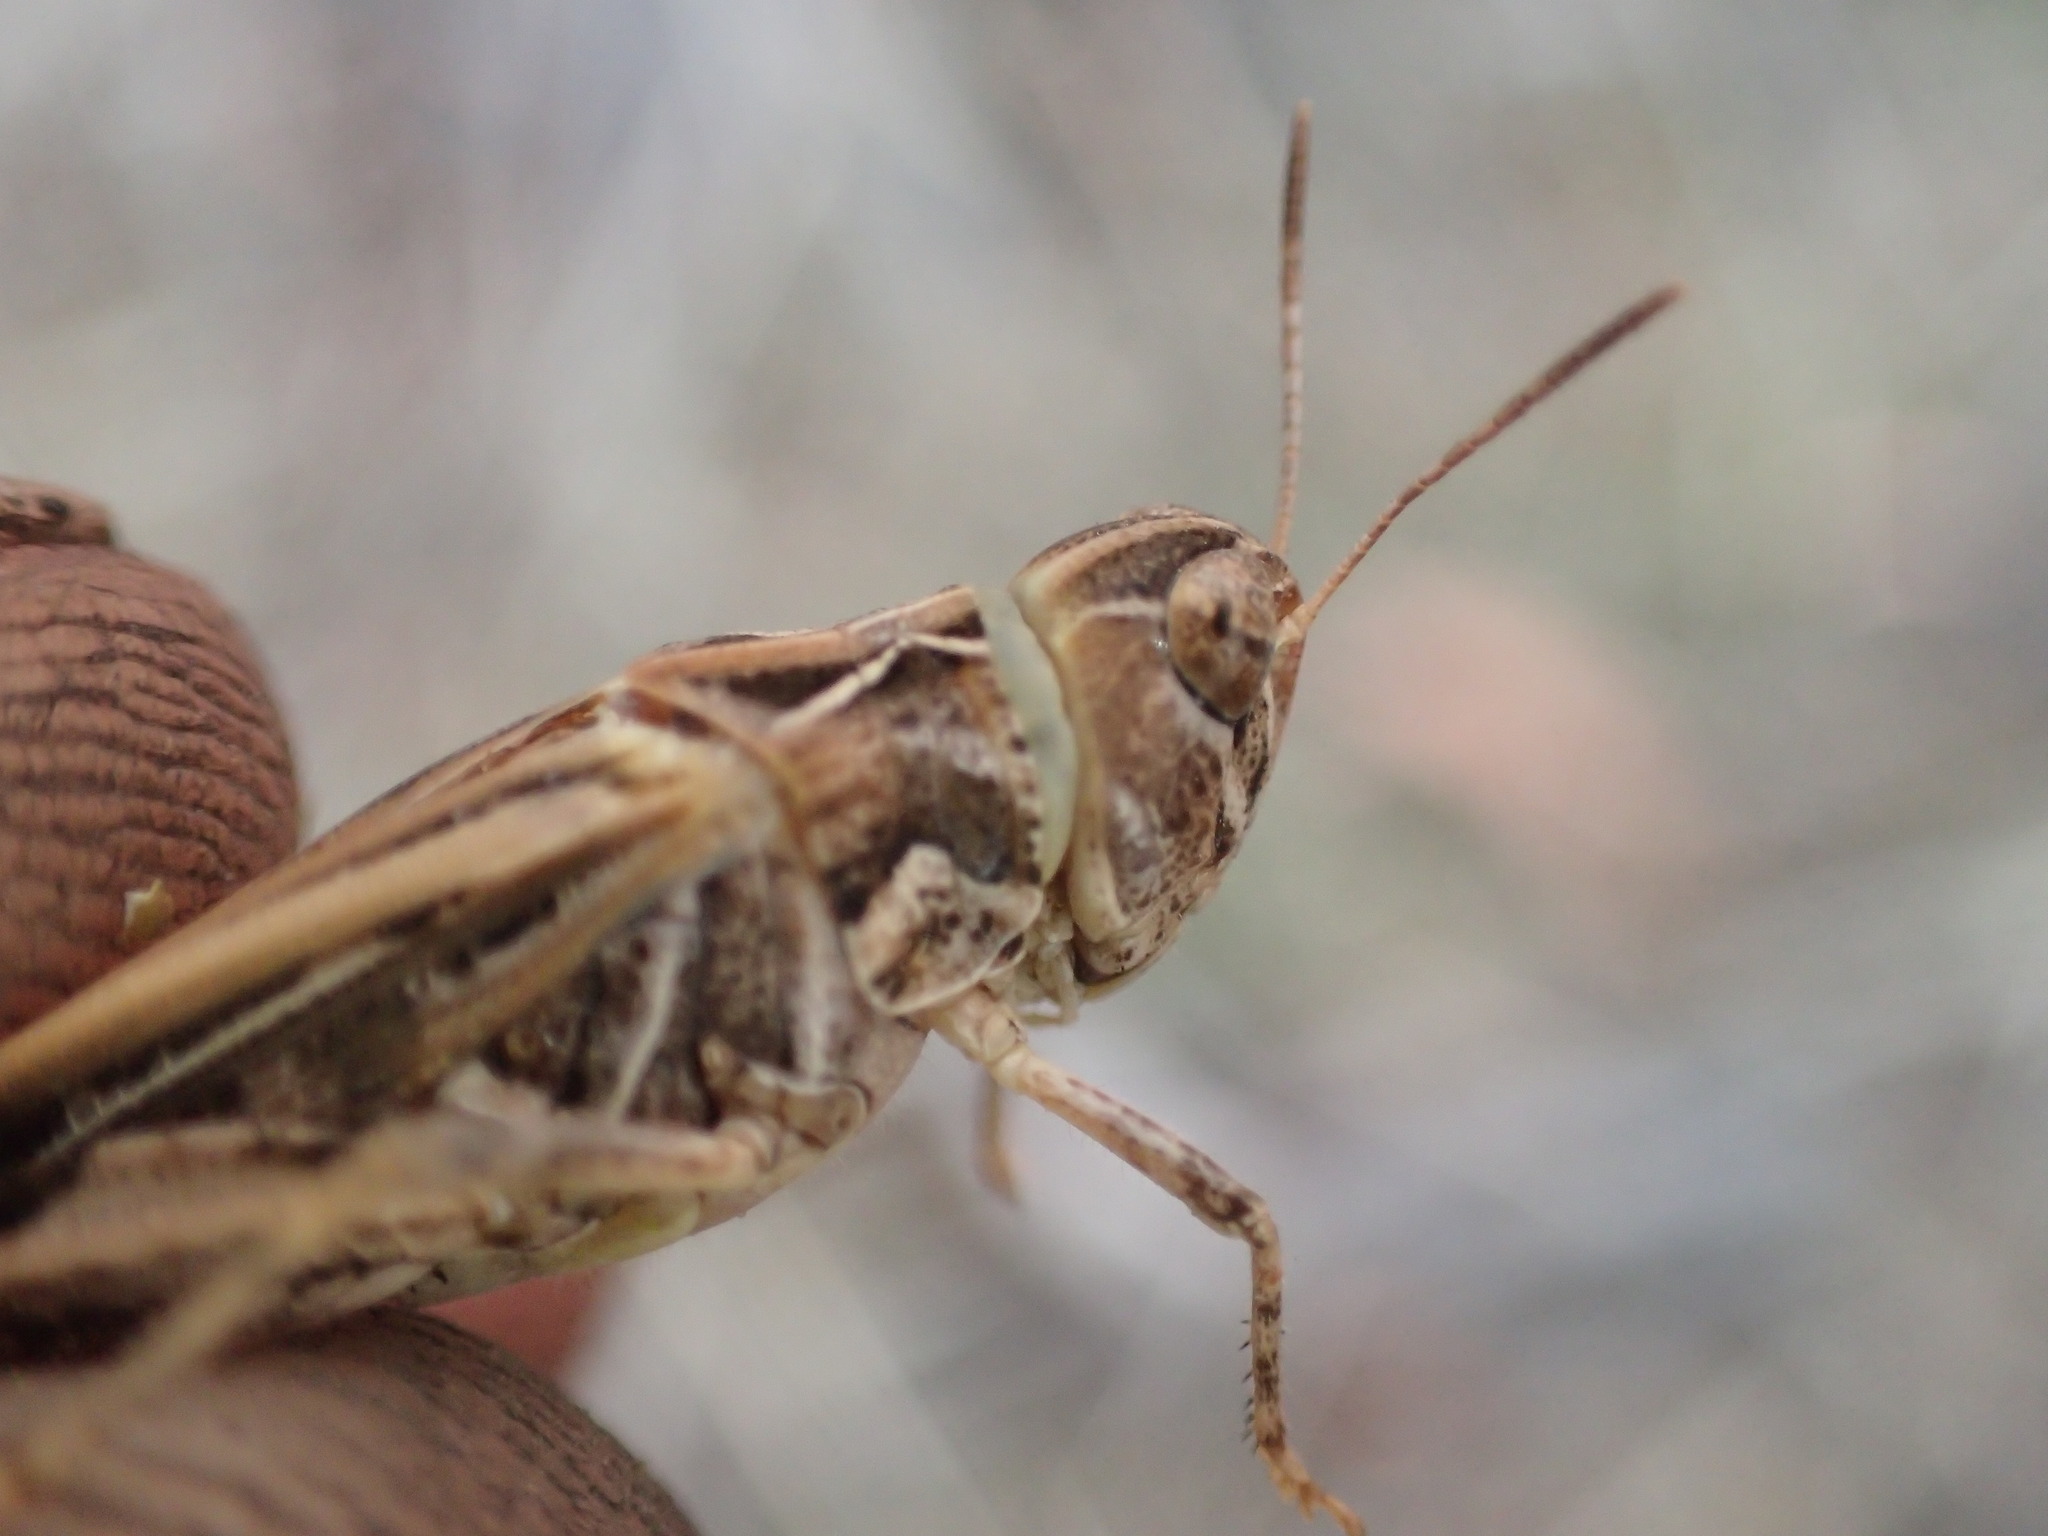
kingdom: Animalia
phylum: Arthropoda
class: Insecta
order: Orthoptera
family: Acrididae
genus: Austroicetes
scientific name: Austroicetes vulgaris
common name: Southeastern austroicetes
